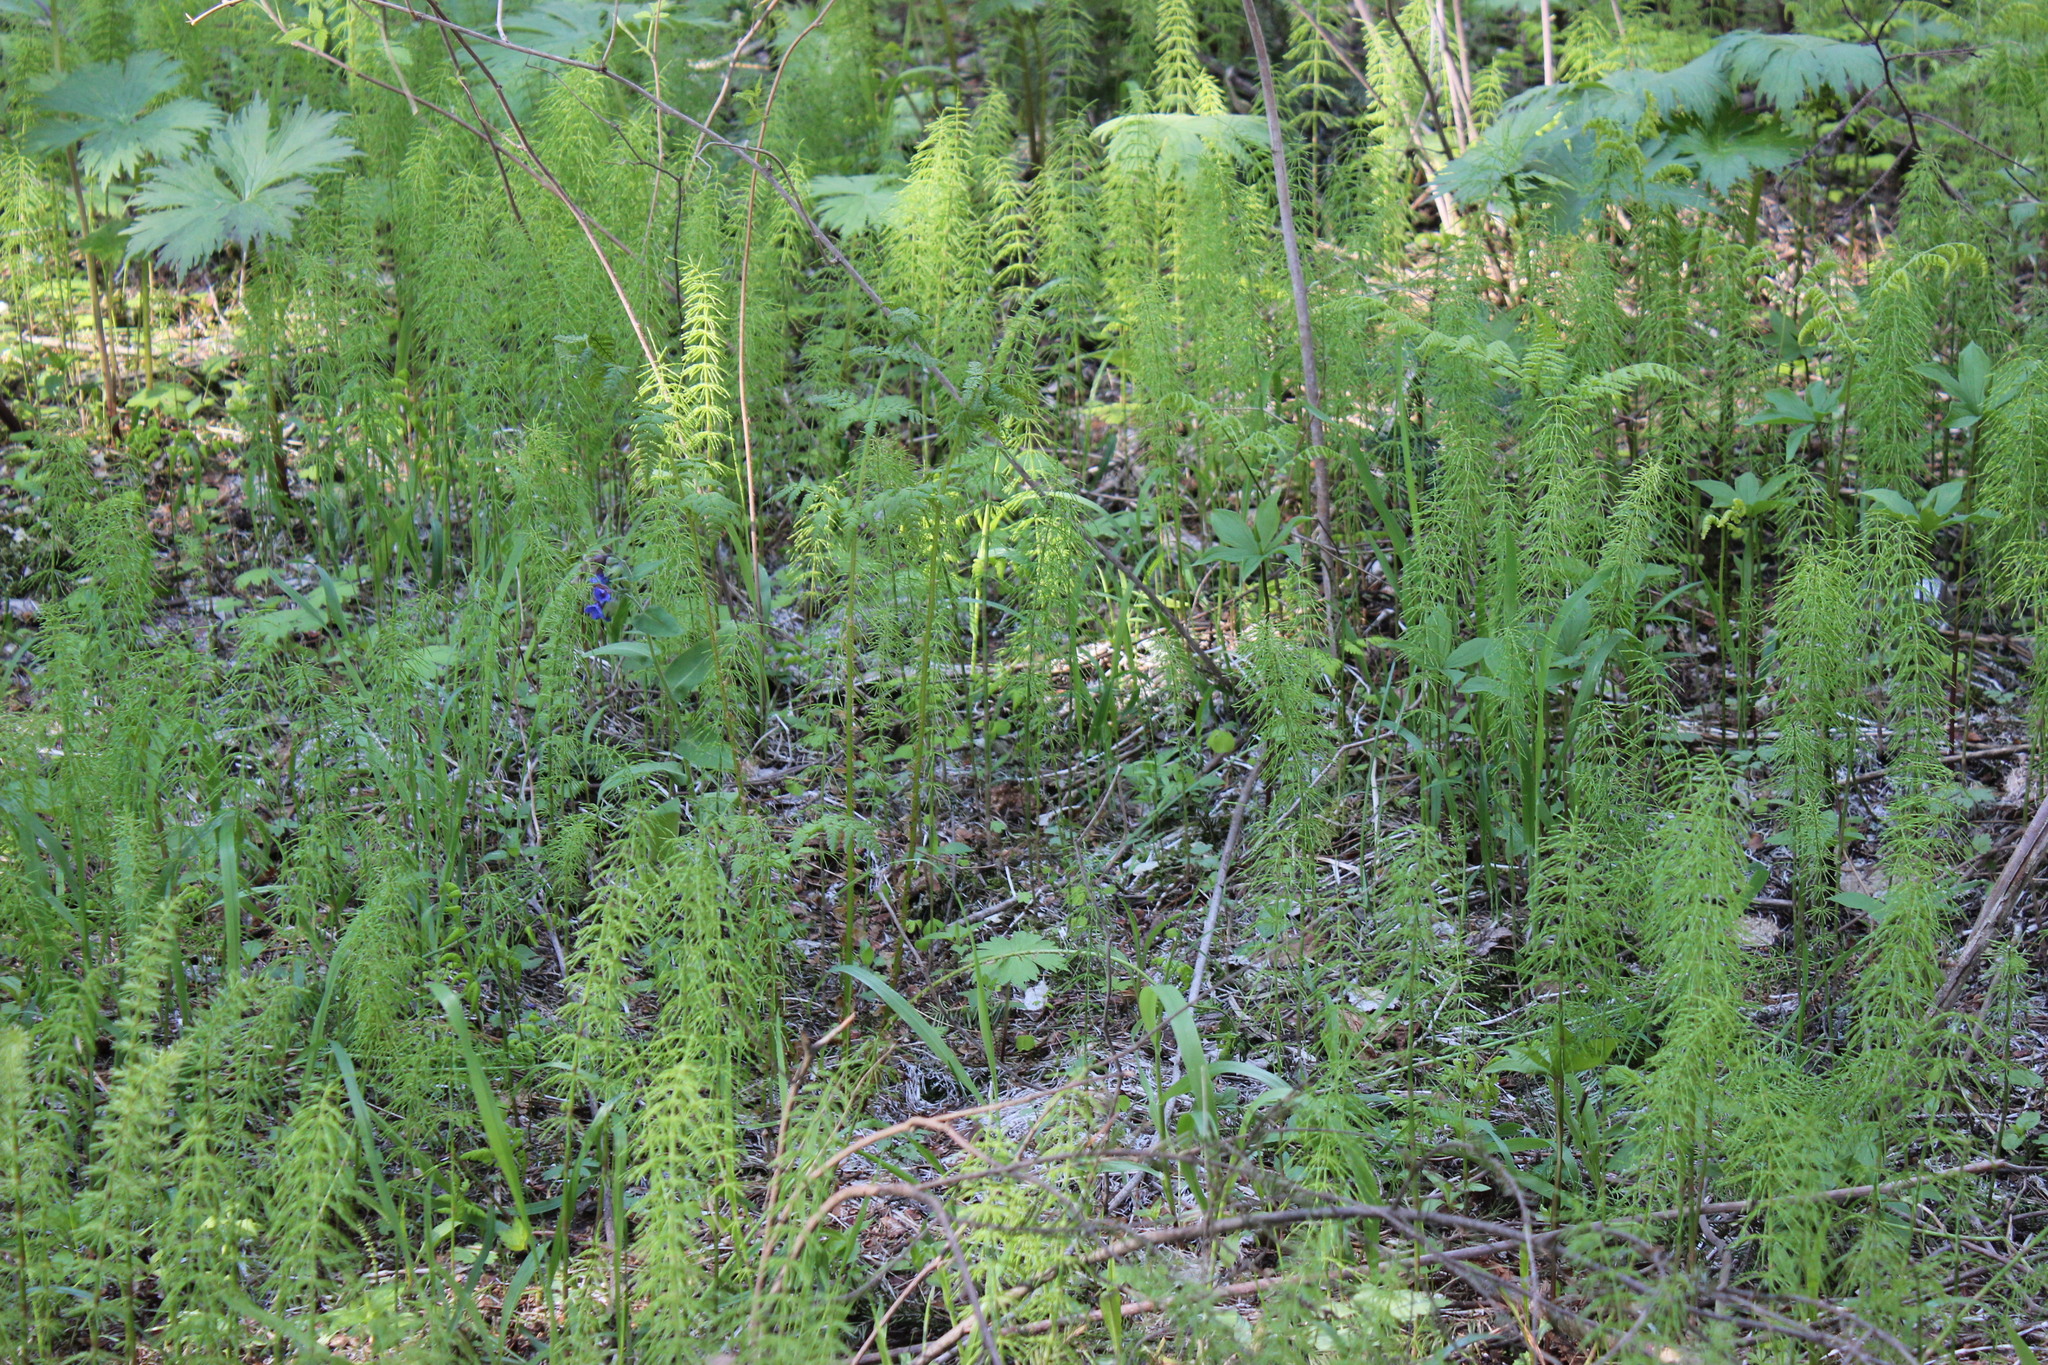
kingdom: Plantae
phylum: Tracheophyta
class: Polypodiopsida
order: Equisetales
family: Equisetaceae
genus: Equisetum
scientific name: Equisetum sylvaticum
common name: Wood horsetail
